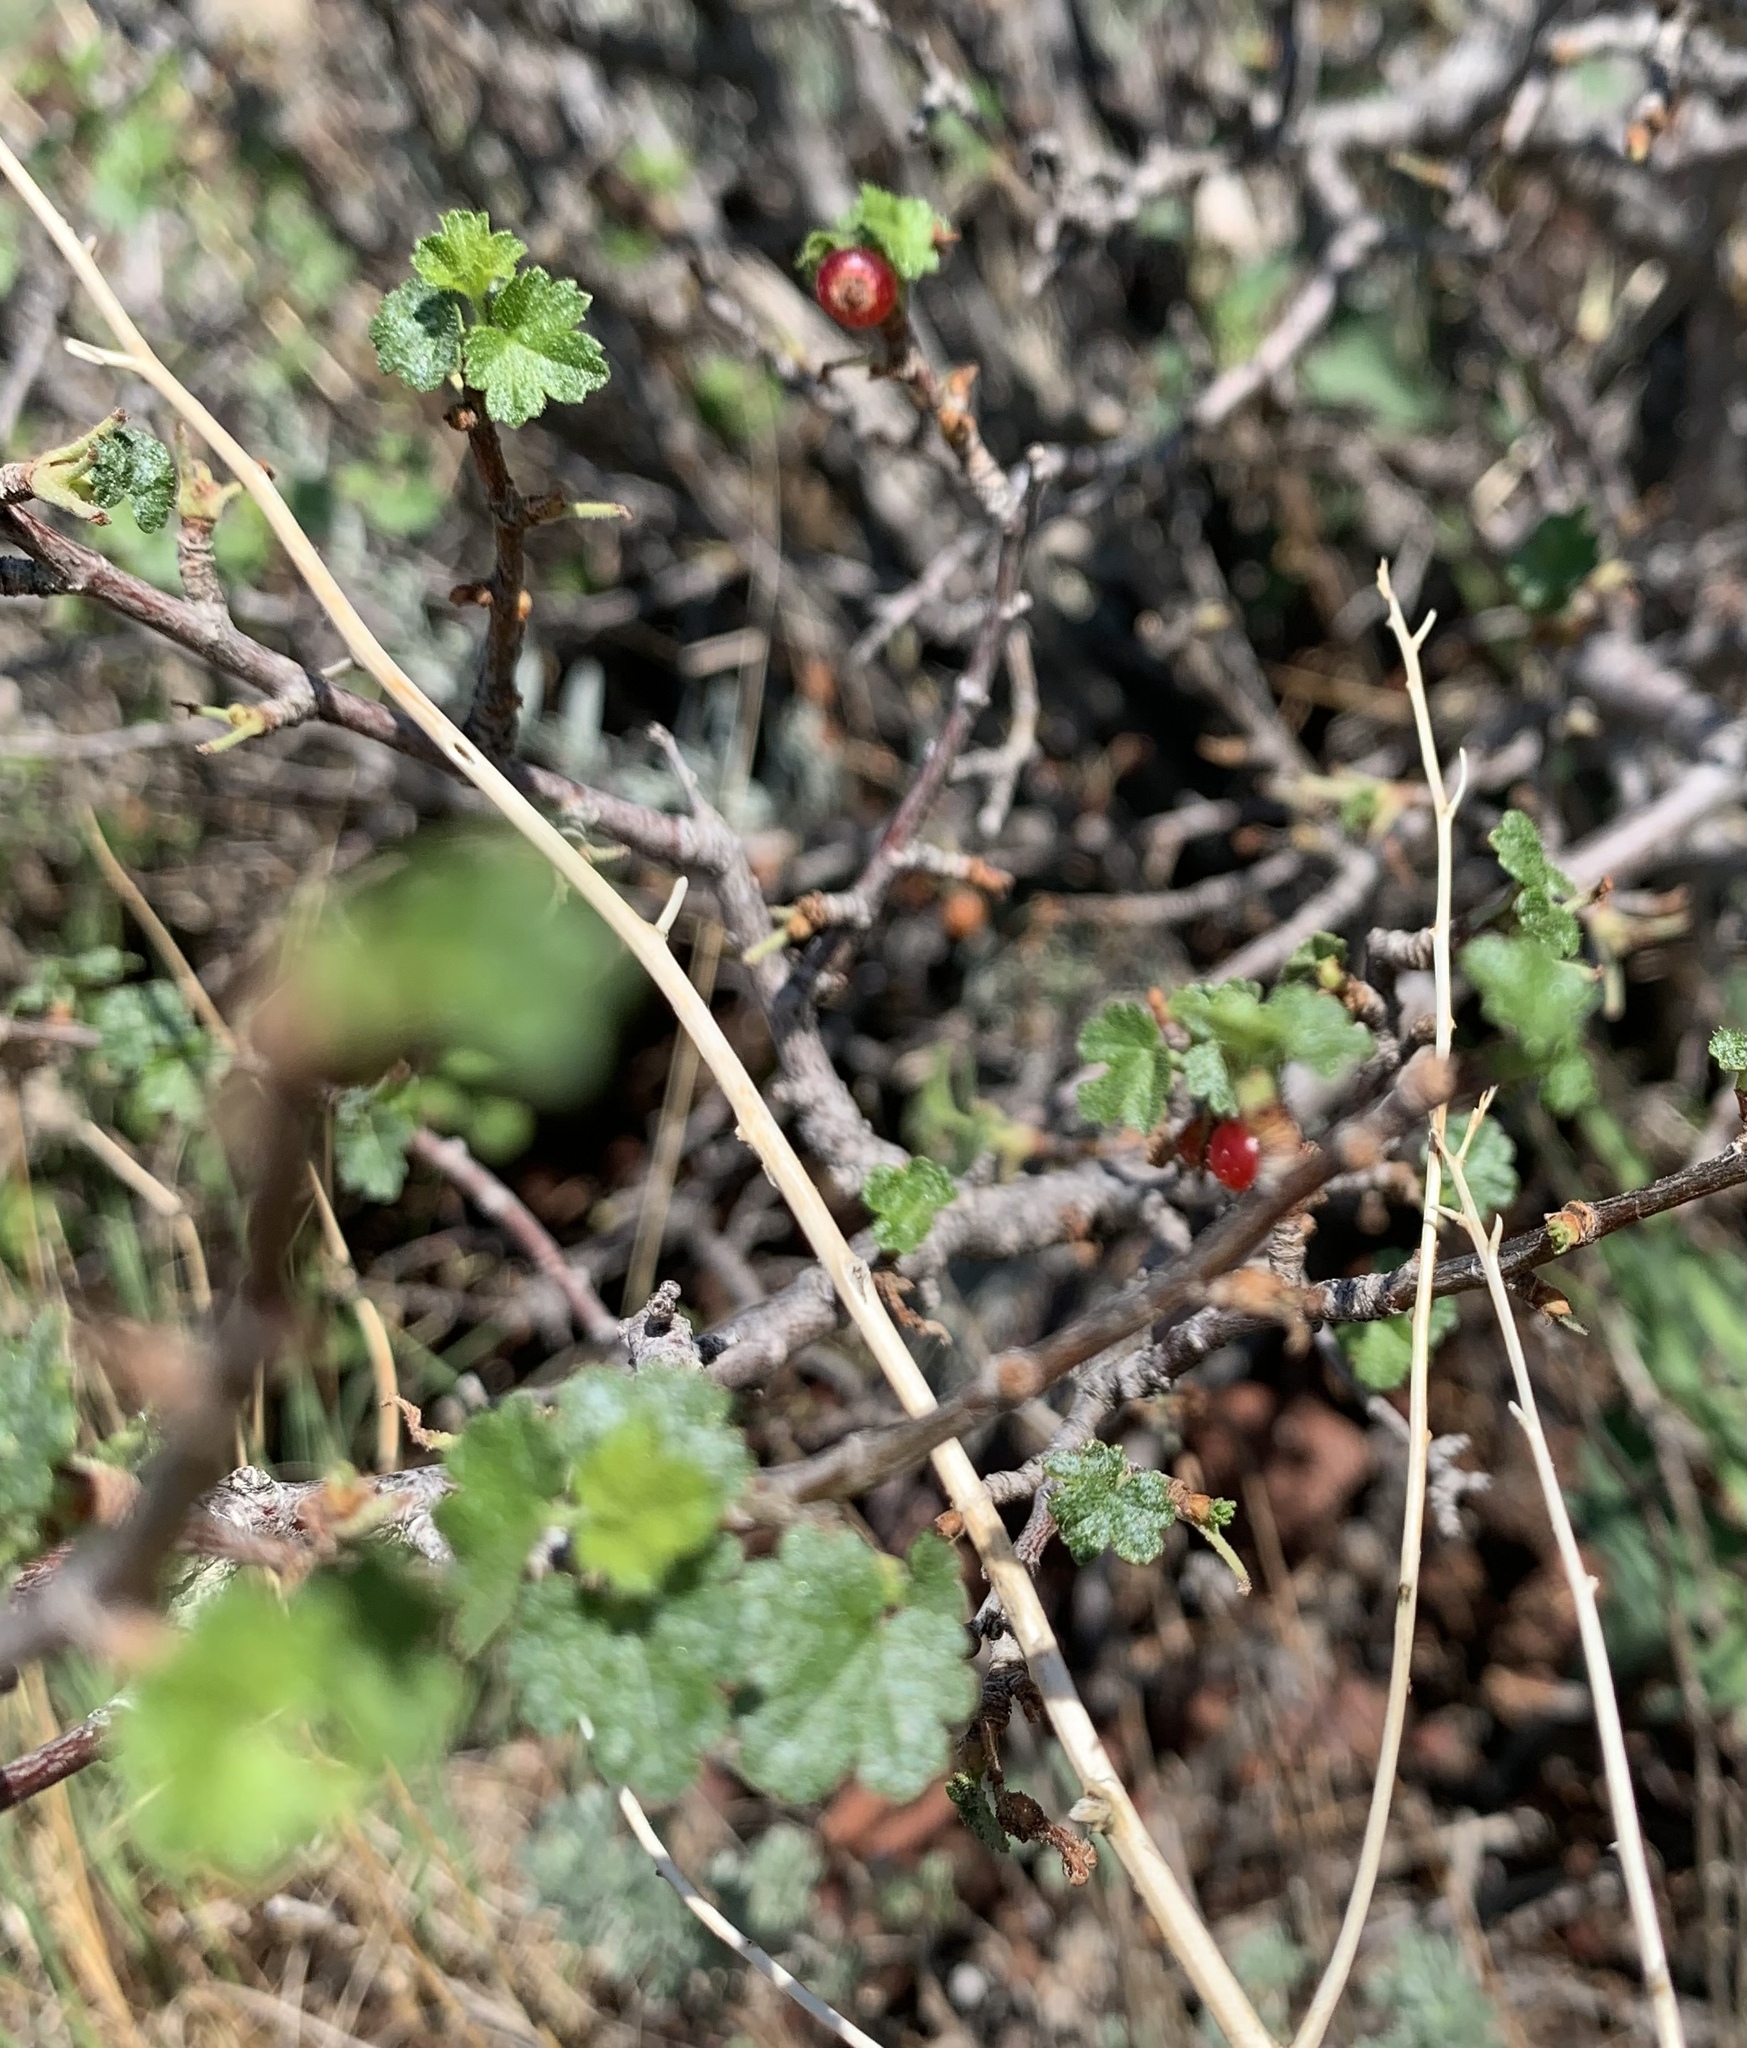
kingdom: Plantae
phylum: Tracheophyta
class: Magnoliopsida
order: Saxifragales
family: Grossulariaceae
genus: Ribes
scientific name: Ribes cereum
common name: Wax currant
